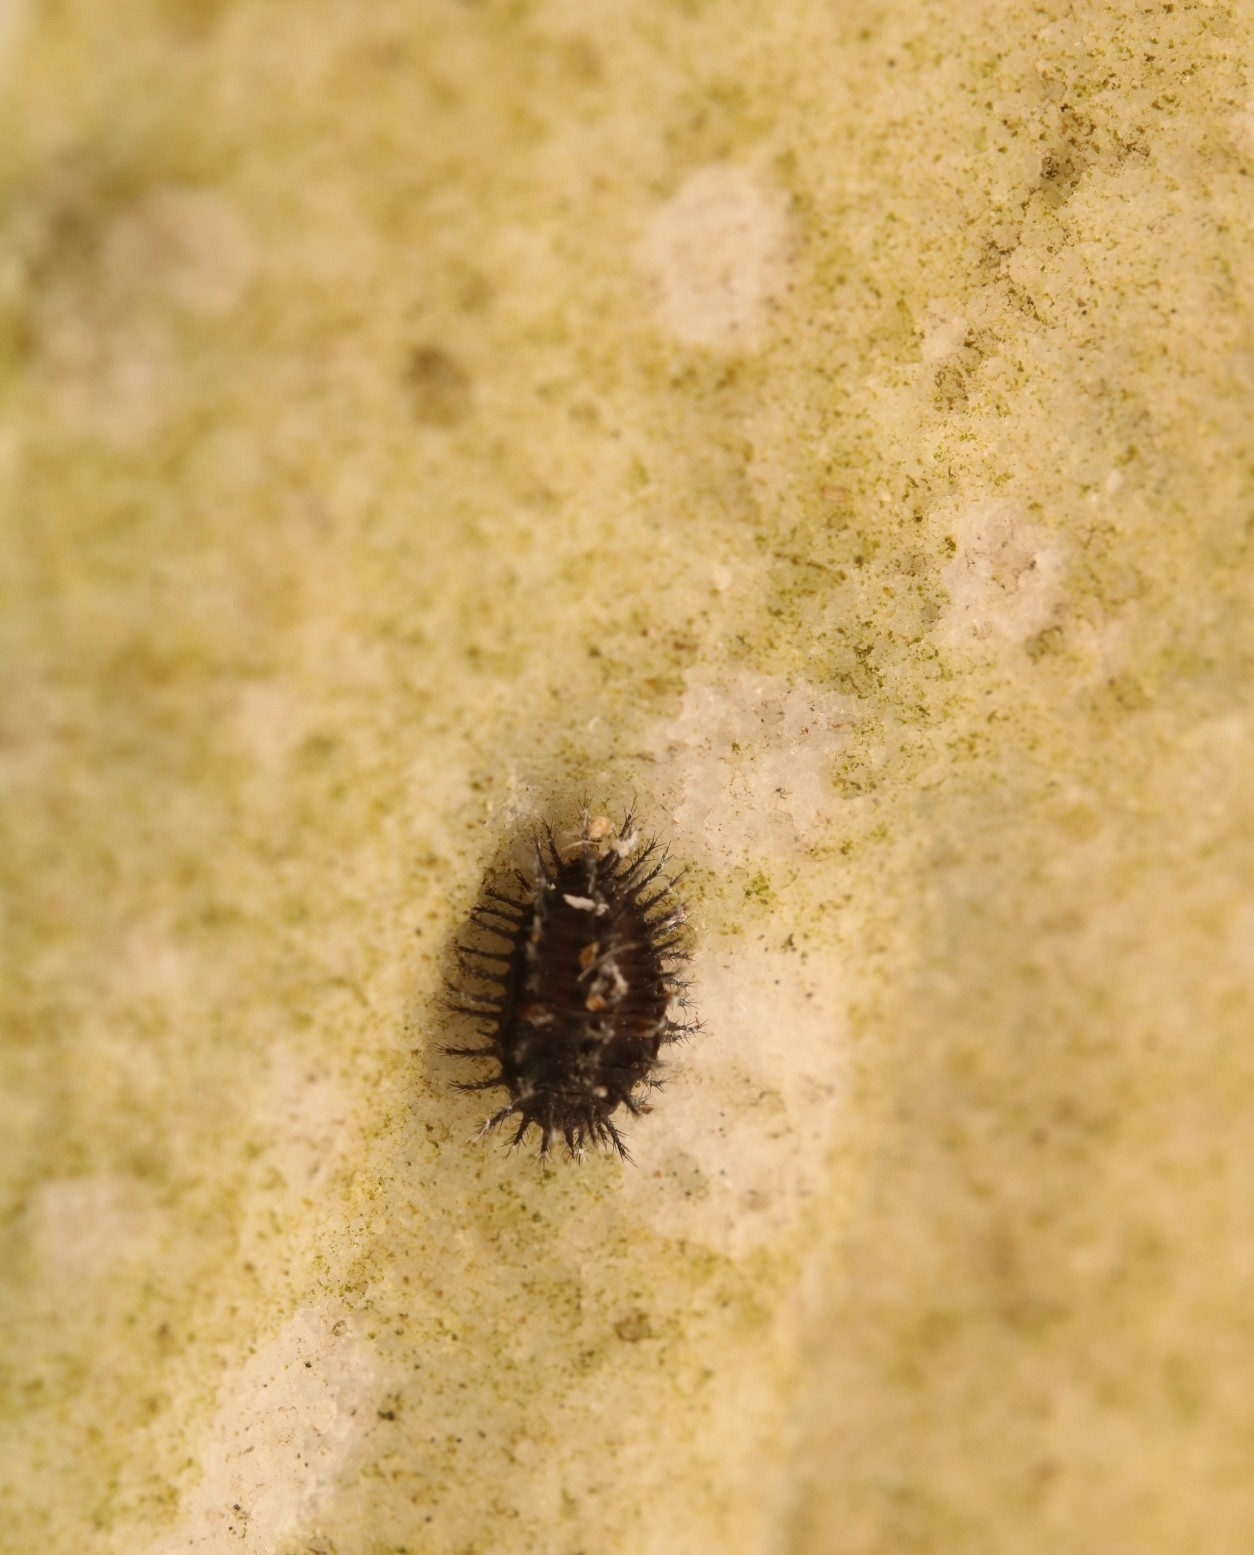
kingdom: Animalia
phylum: Arthropoda
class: Insecta
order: Coleoptera
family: Coccinellidae
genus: Chilocorus
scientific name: Chilocorus stigma
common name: Twicestabbed lady beetle
